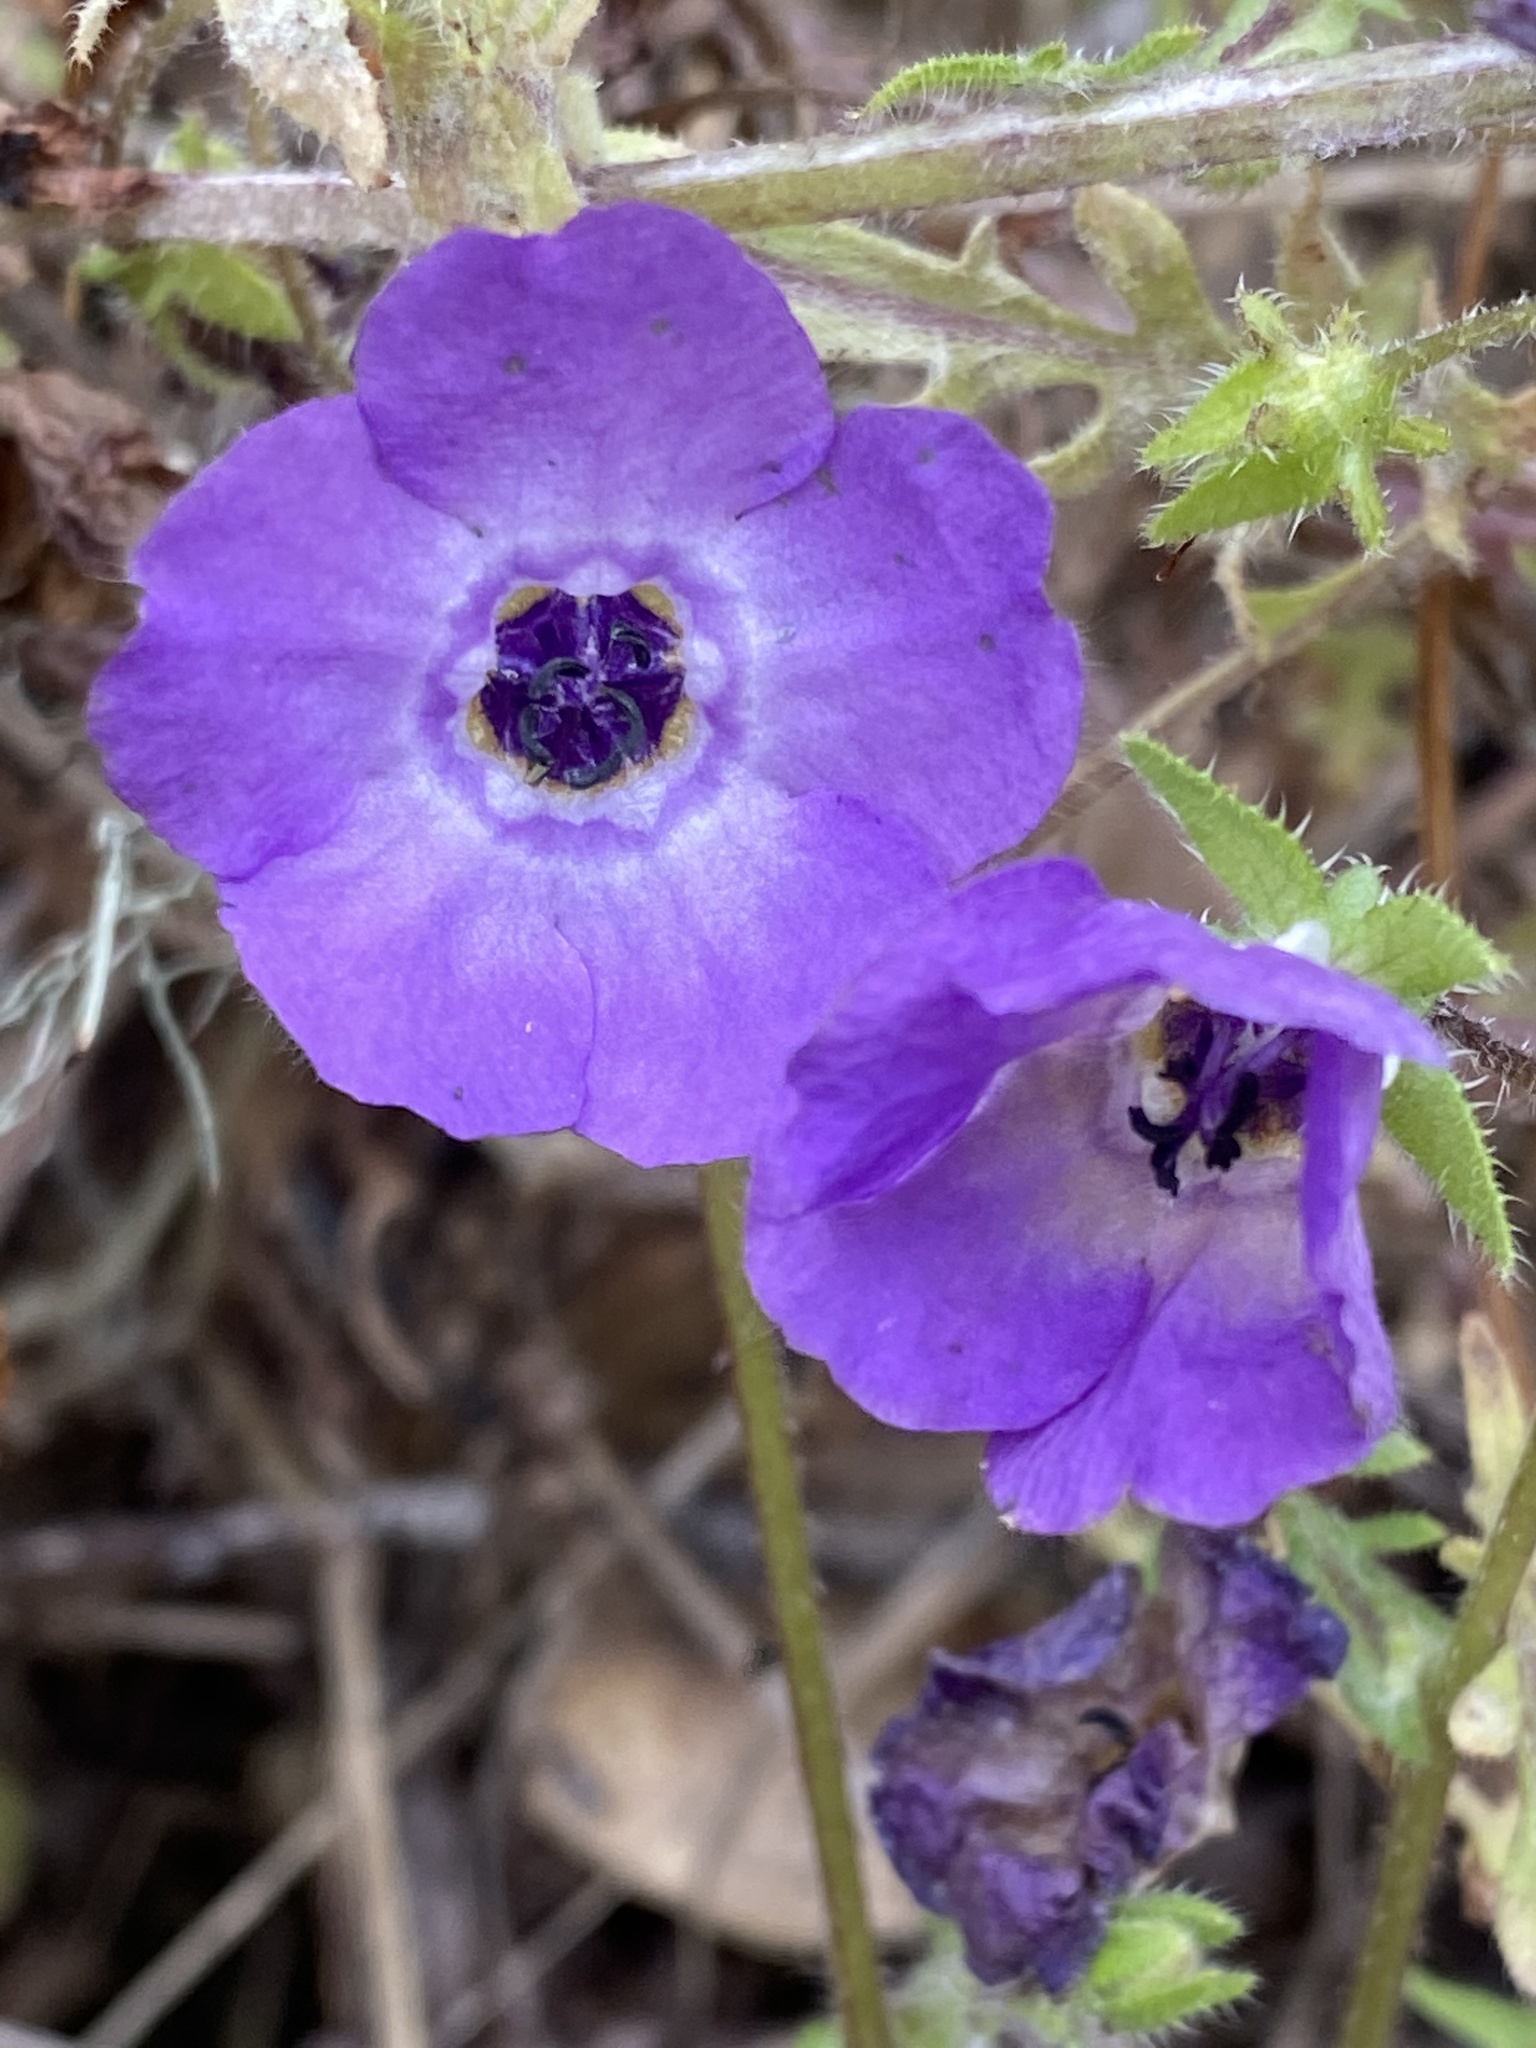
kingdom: Plantae
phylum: Tracheophyta
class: Magnoliopsida
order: Boraginales
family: Hydrophyllaceae
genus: Pholistoma
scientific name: Pholistoma auritum
